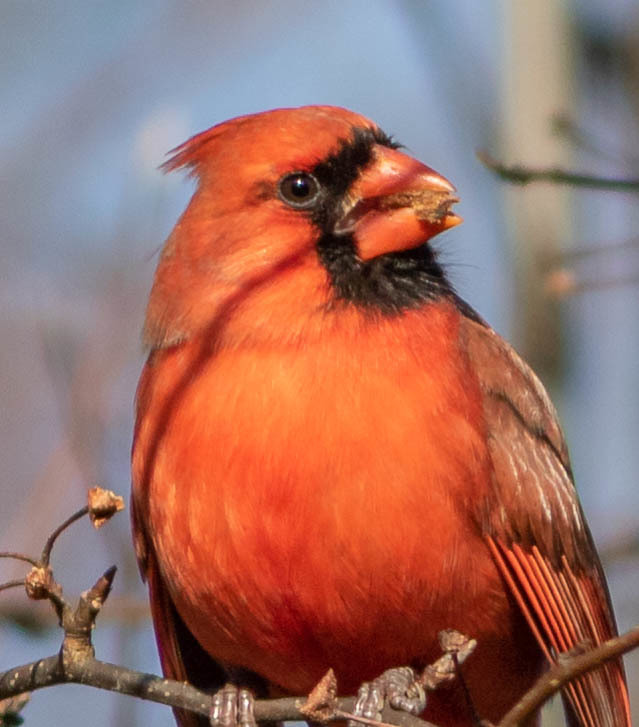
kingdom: Animalia
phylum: Chordata
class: Aves
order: Passeriformes
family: Cardinalidae
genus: Cardinalis
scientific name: Cardinalis cardinalis
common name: Northern cardinal
